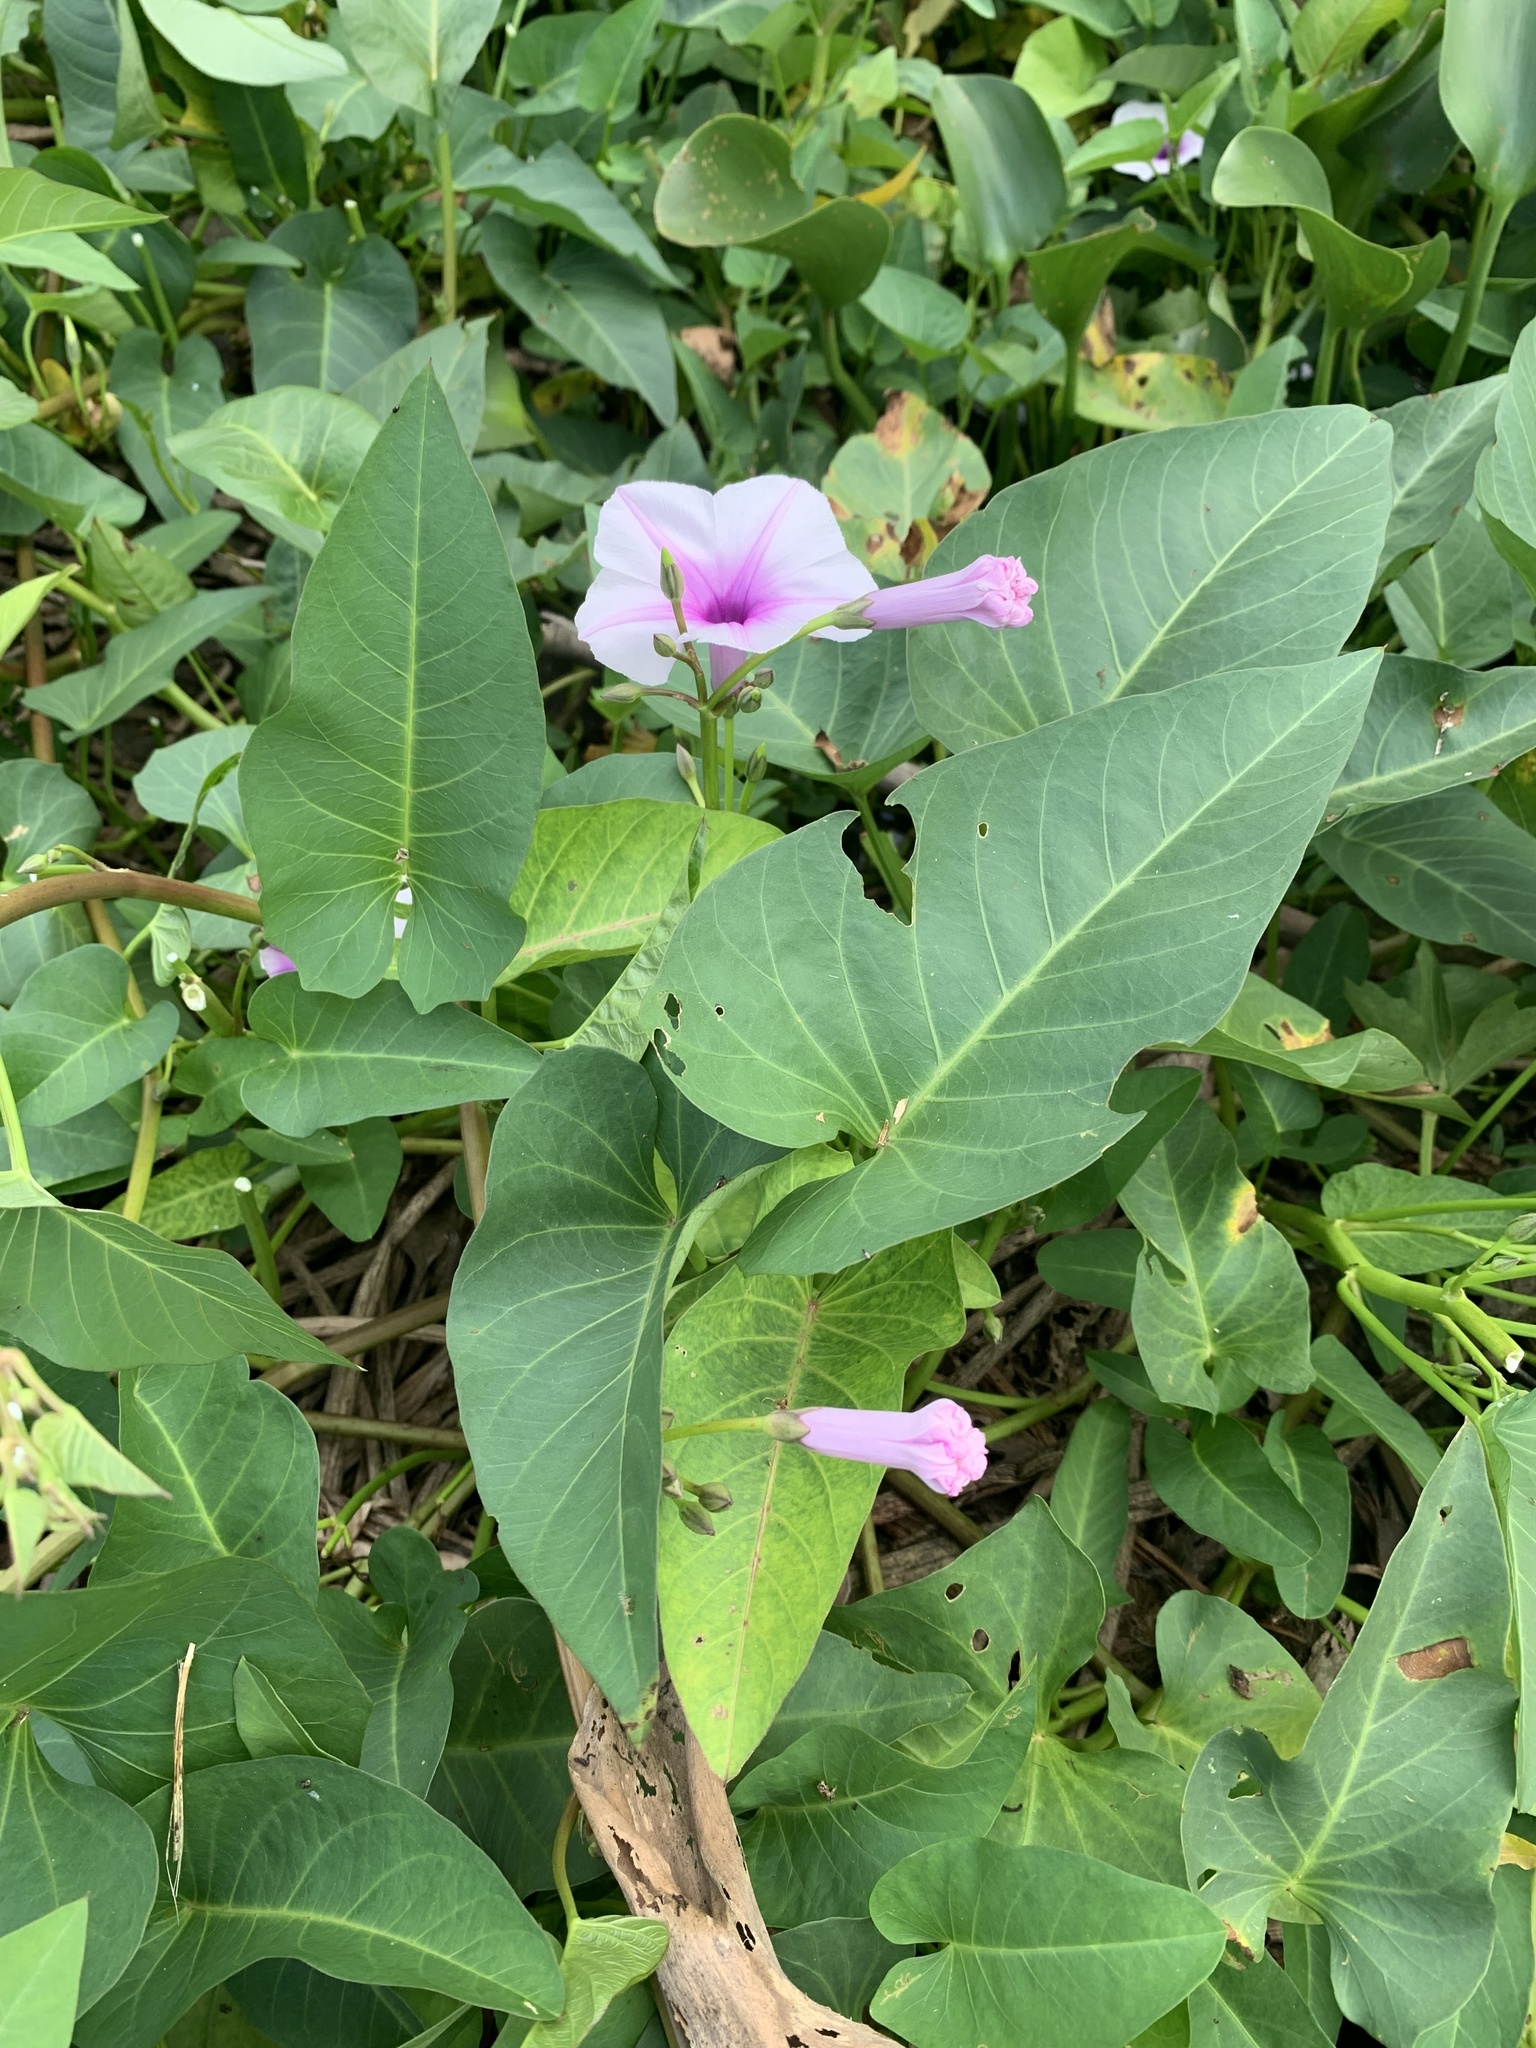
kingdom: Plantae
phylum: Tracheophyta
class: Magnoliopsida
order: Solanales
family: Convolvulaceae
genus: Ipomoea
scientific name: Ipomoea aquatica
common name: Swamp morning-glory
